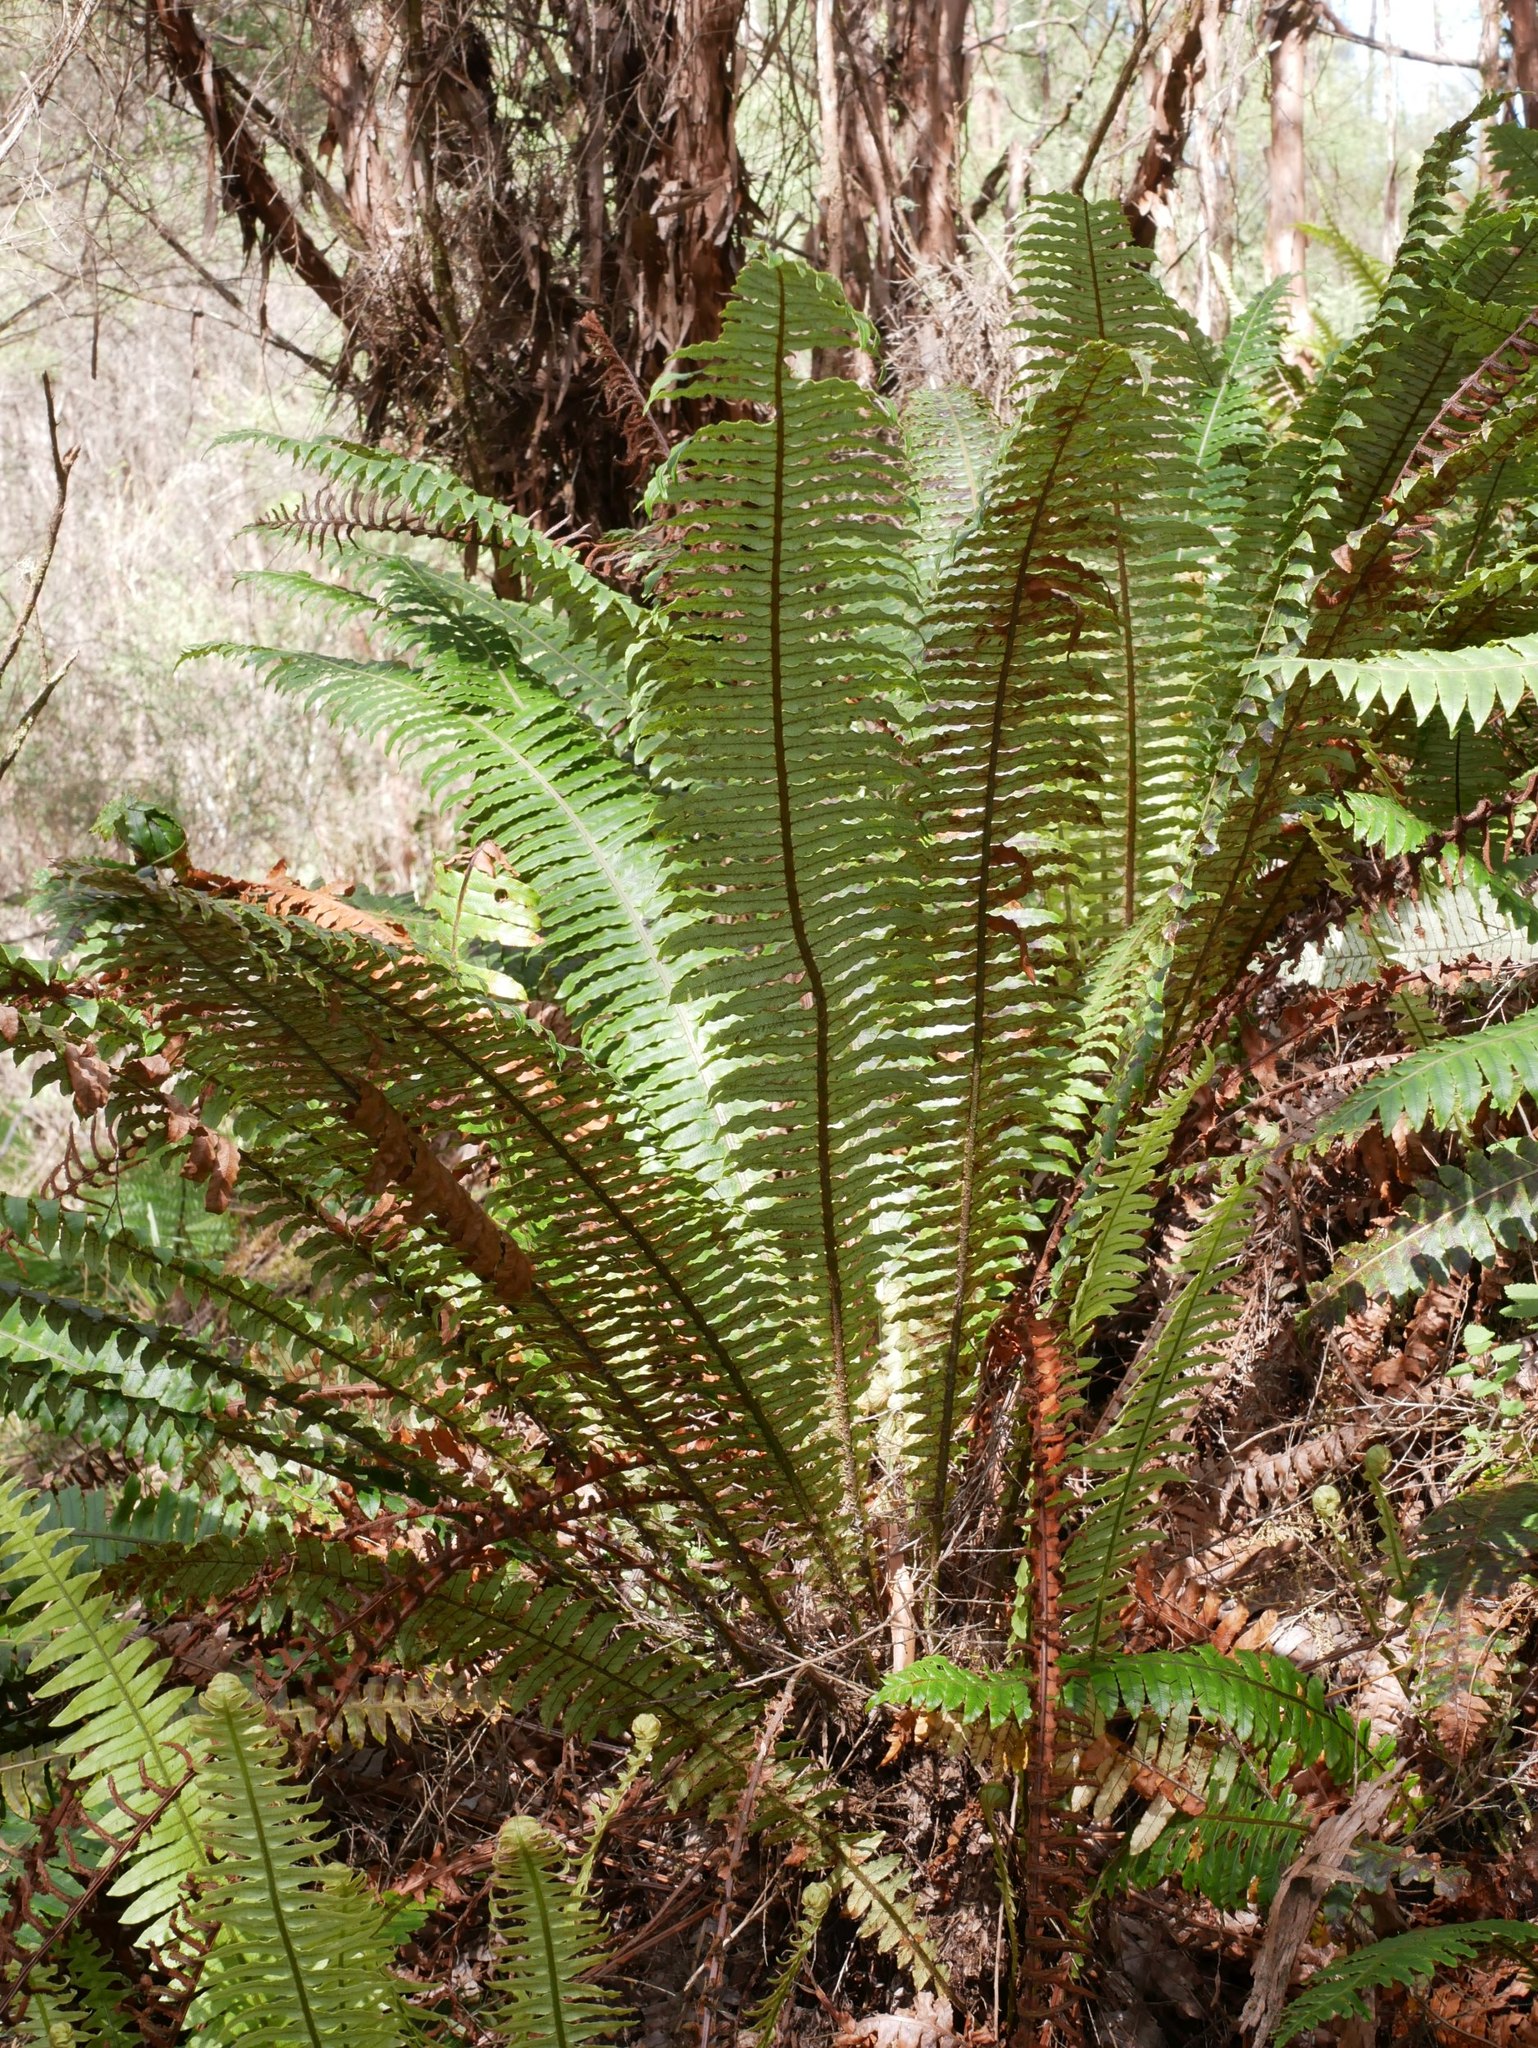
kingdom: Plantae
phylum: Tracheophyta
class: Polypodiopsida
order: Polypodiales
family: Blechnaceae
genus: Lomaria
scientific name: Lomaria discolor
